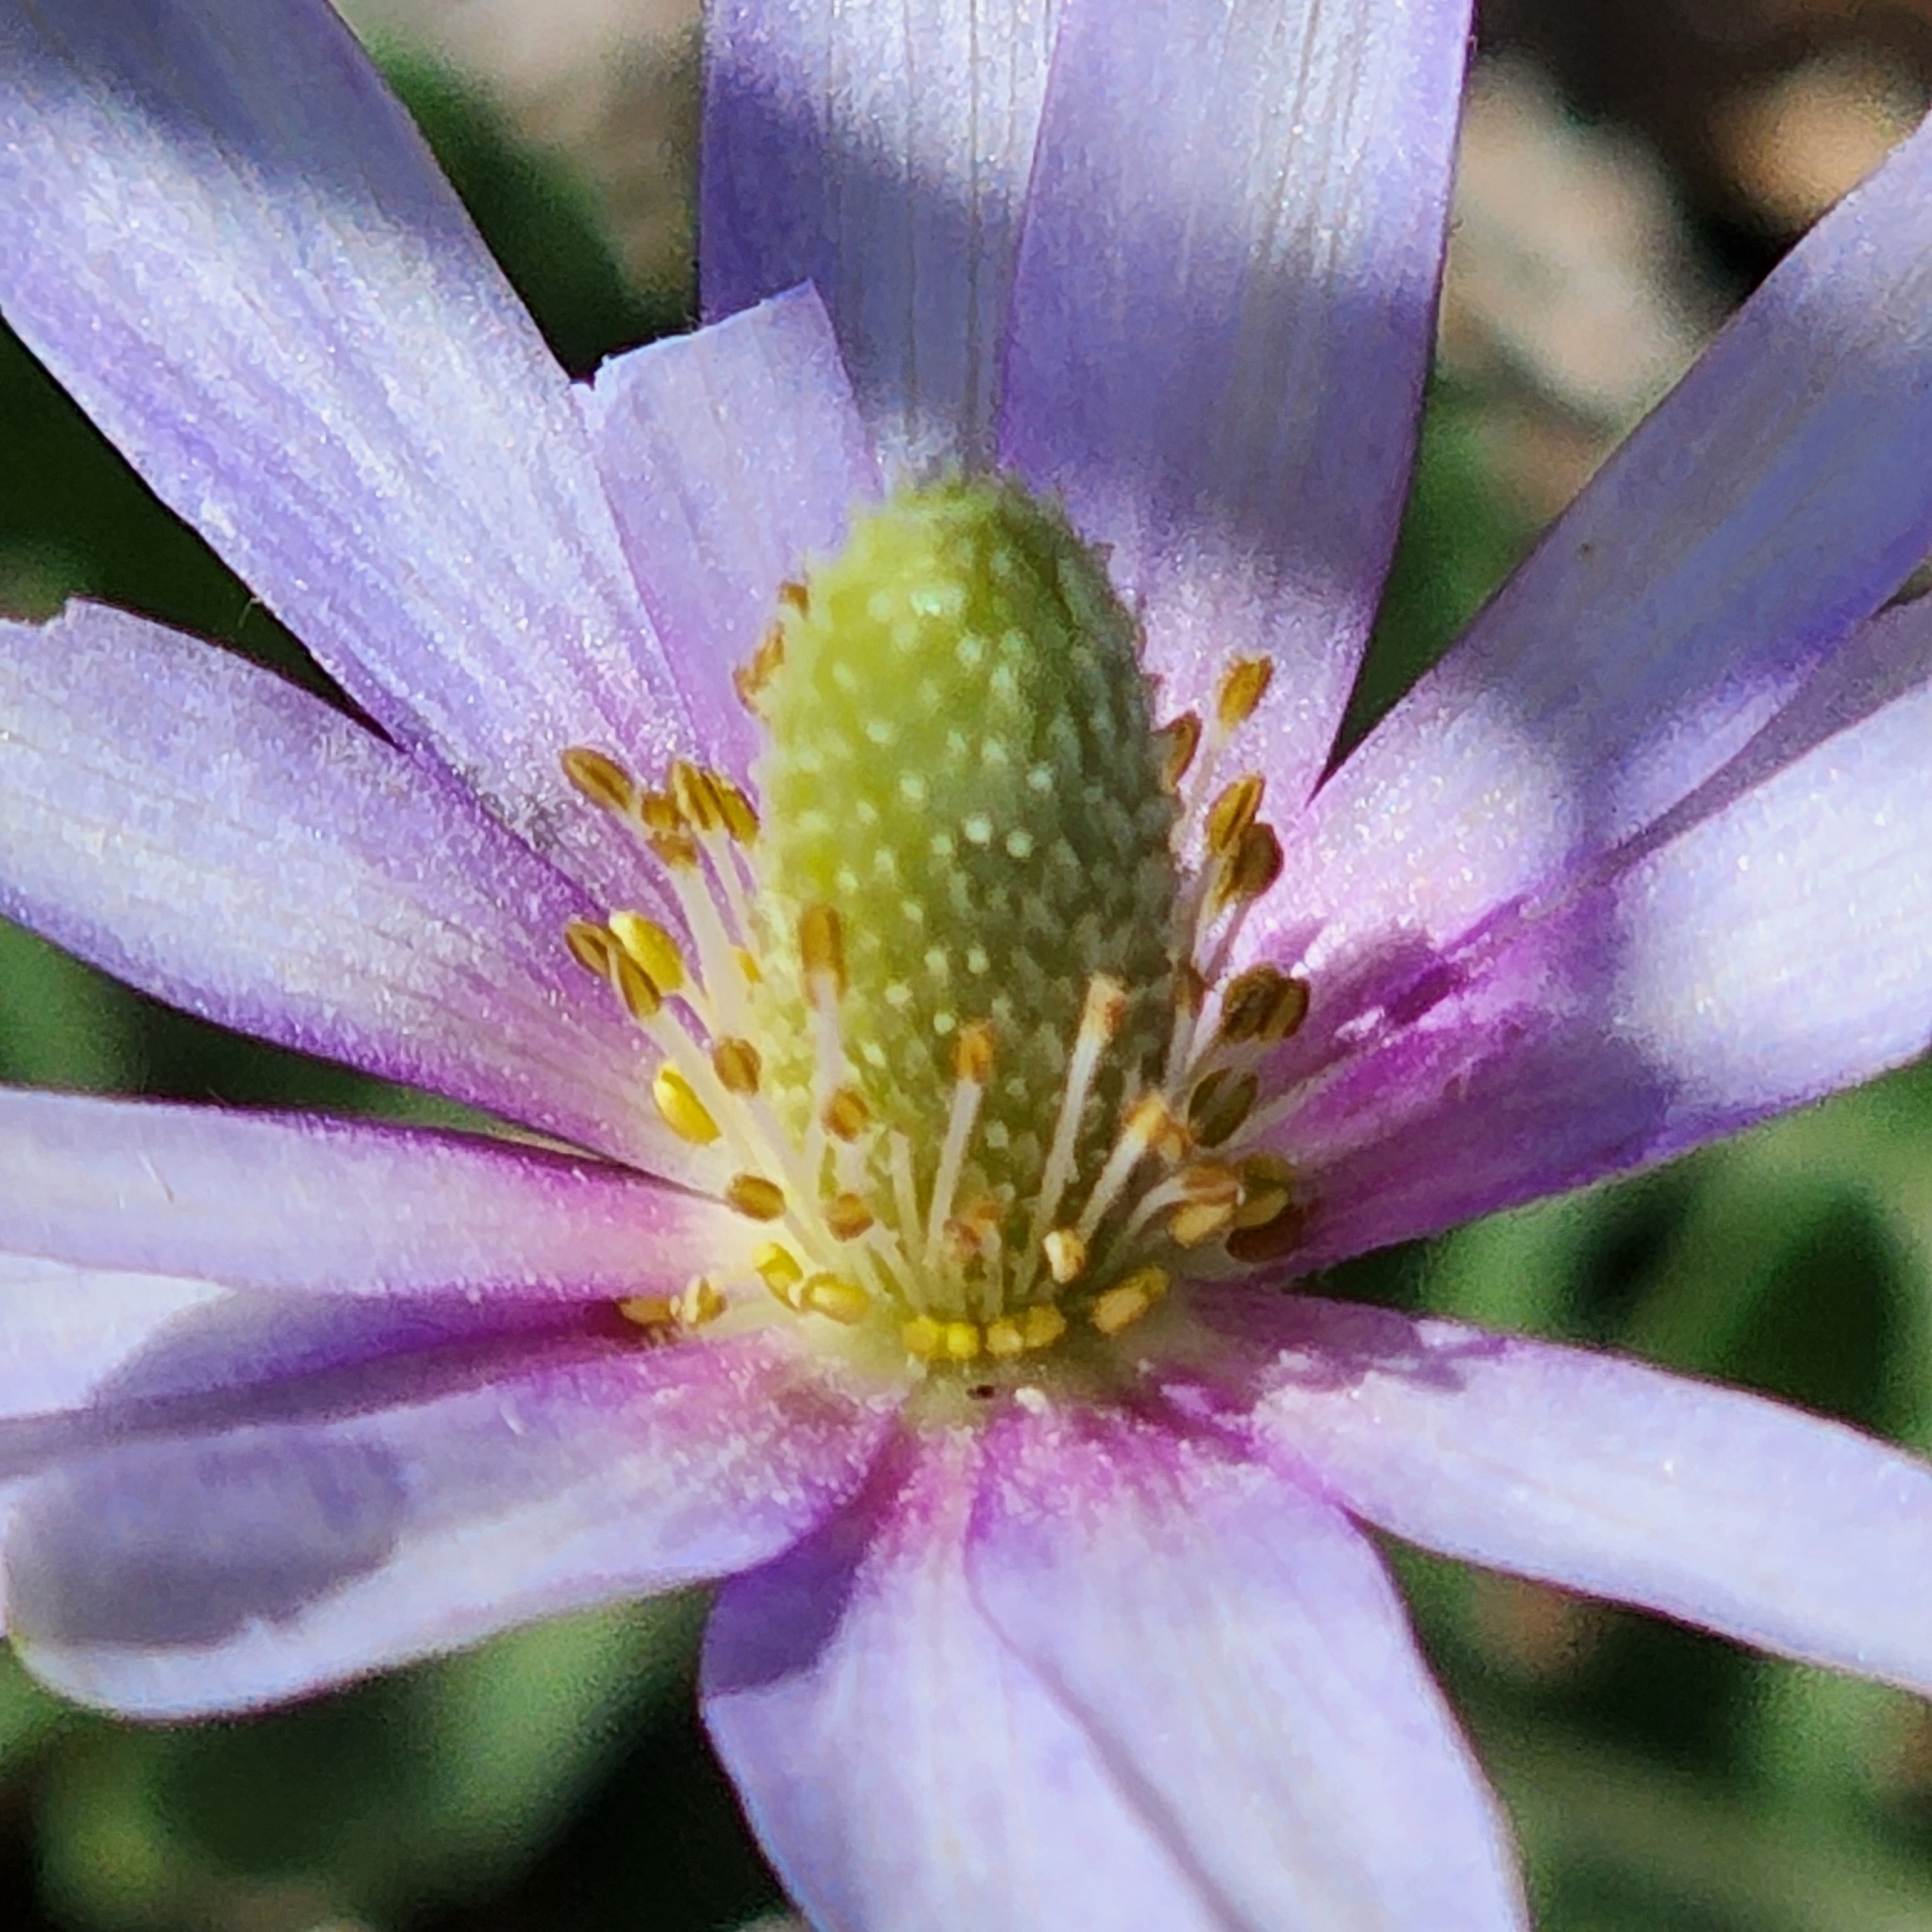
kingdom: Plantae
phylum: Tracheophyta
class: Magnoliopsida
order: Ranunculales
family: Ranunculaceae
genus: Anemone
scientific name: Anemone berlandieri
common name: Ten-petal anemone
